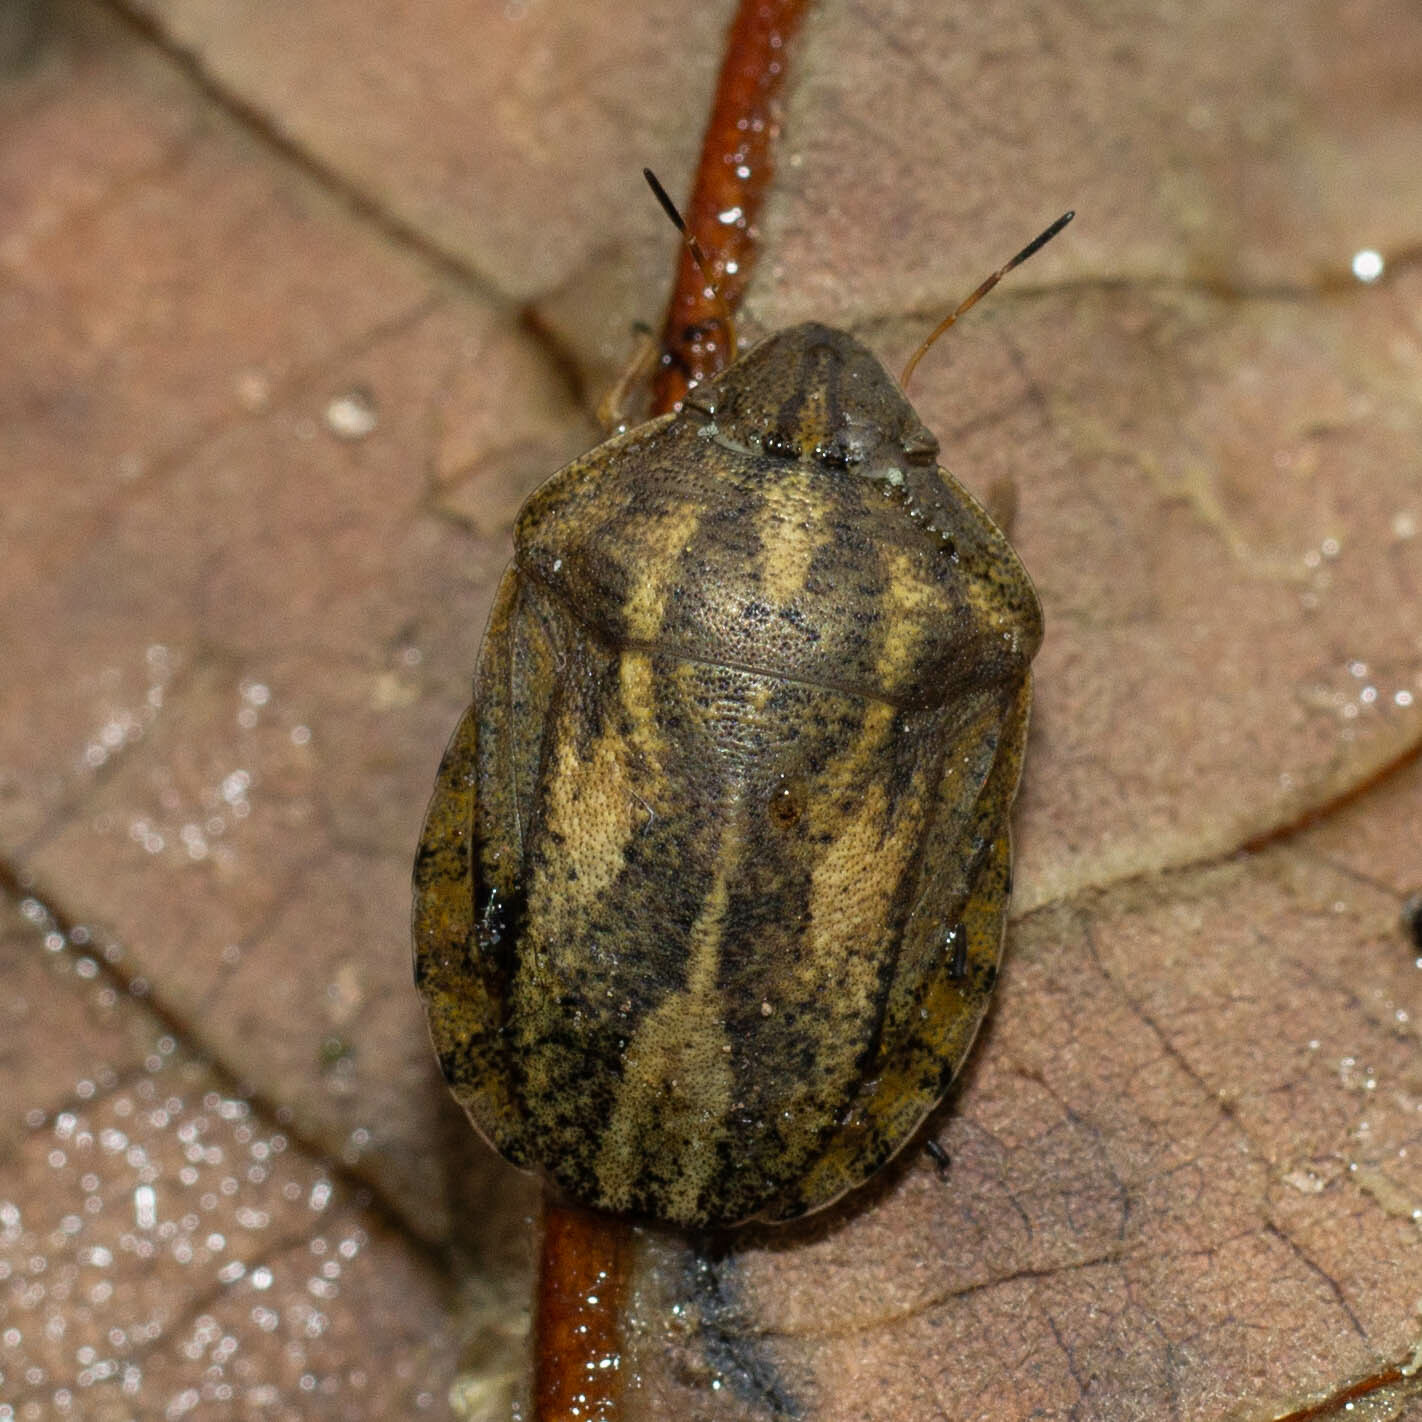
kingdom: Animalia
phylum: Arthropoda
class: Insecta
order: Hemiptera
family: Scutelleridae
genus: Eurygaster
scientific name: Eurygaster austriaca
